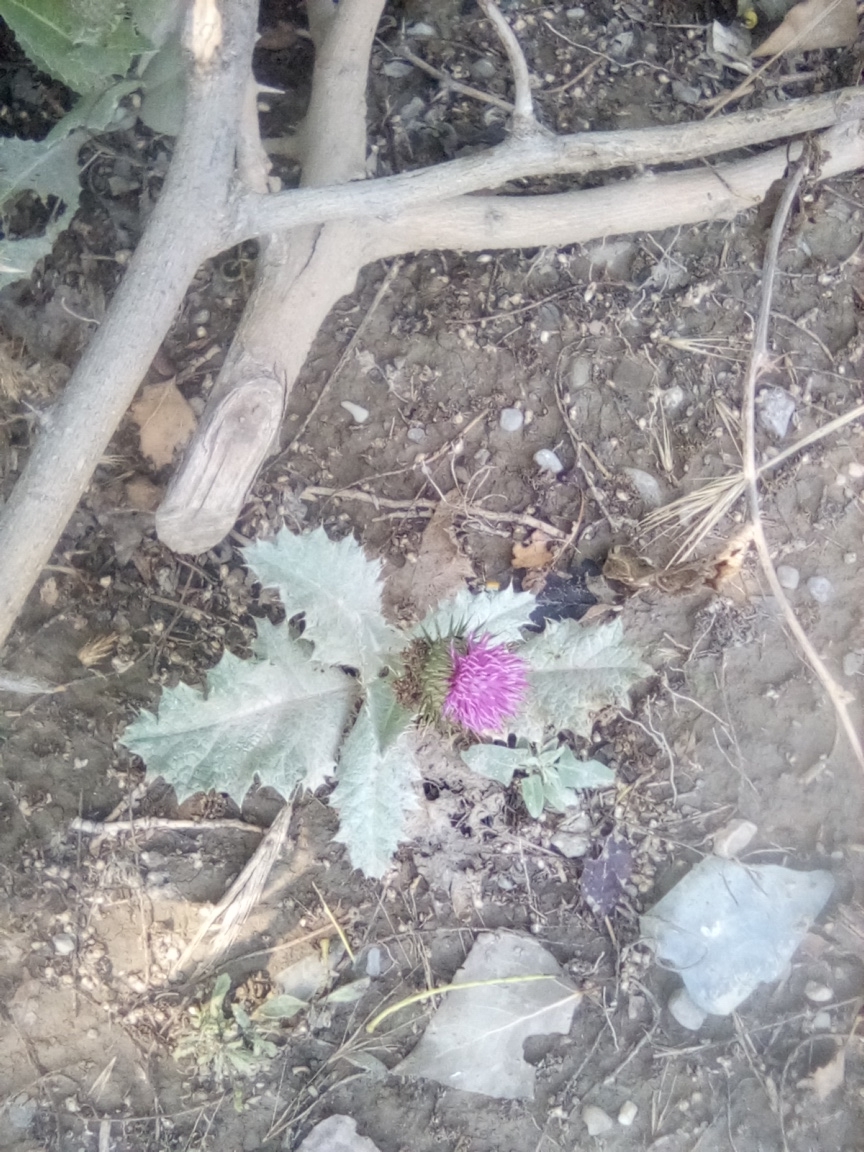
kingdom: Plantae
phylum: Tracheophyta
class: Magnoliopsida
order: Asterales
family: Asteraceae
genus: Onopordum
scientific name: Onopordum acanthium
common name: Scotch thistle
